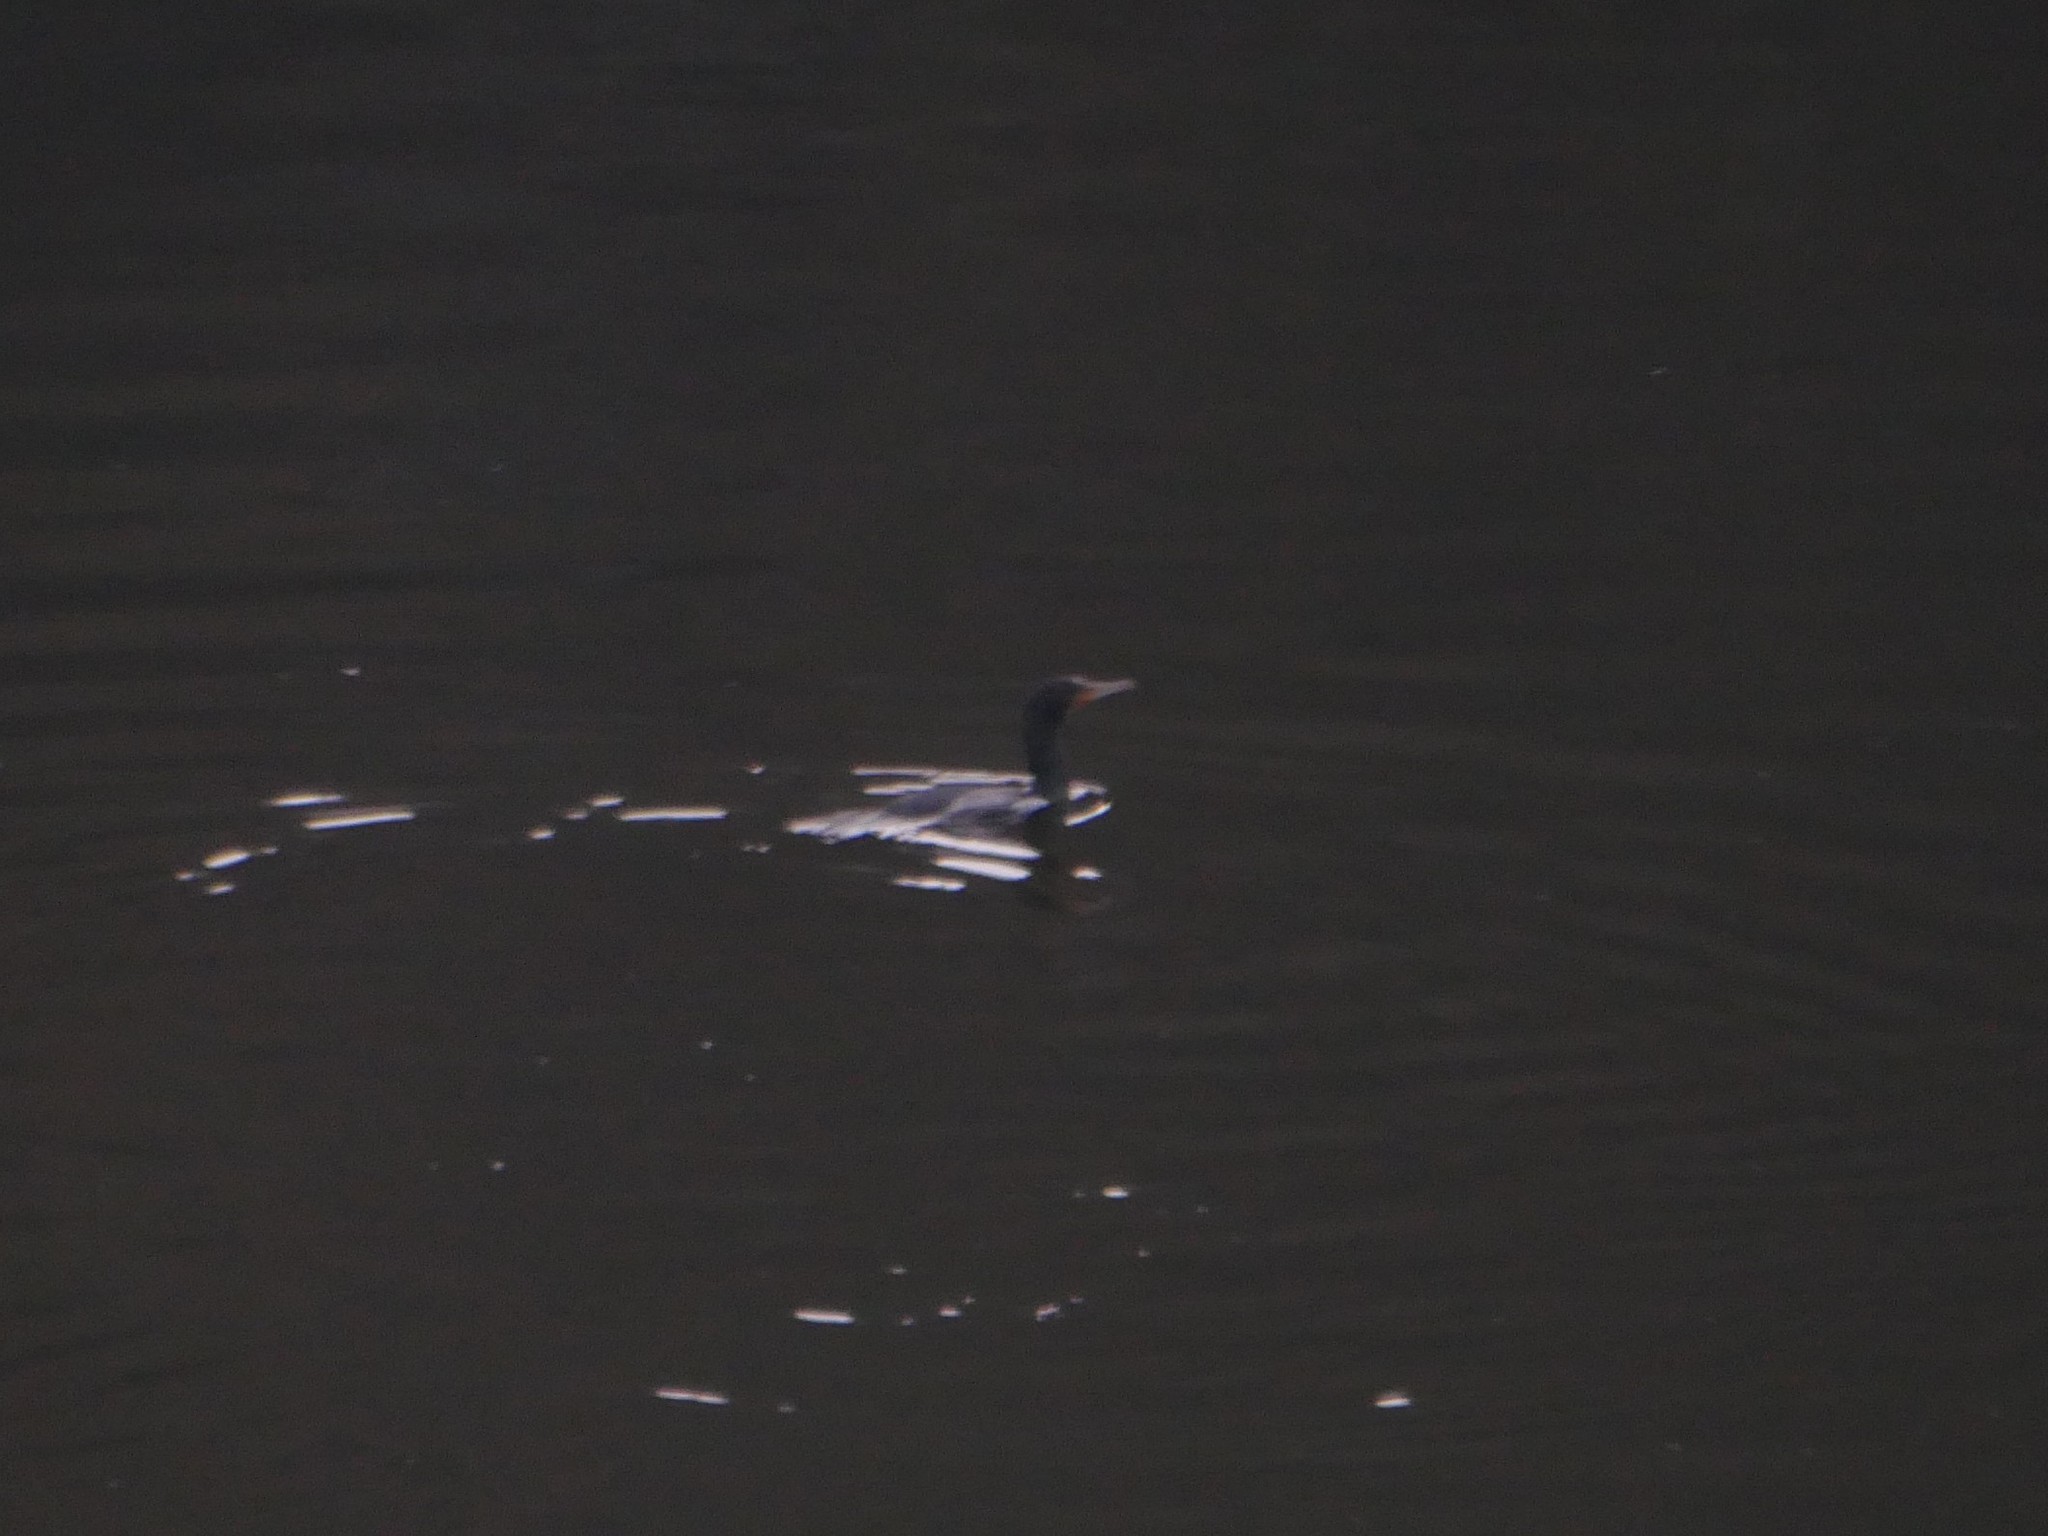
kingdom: Animalia
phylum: Chordata
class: Aves
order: Suliformes
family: Phalacrocoracidae
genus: Phalacrocorax
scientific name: Phalacrocorax carbo
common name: Great cormorant
